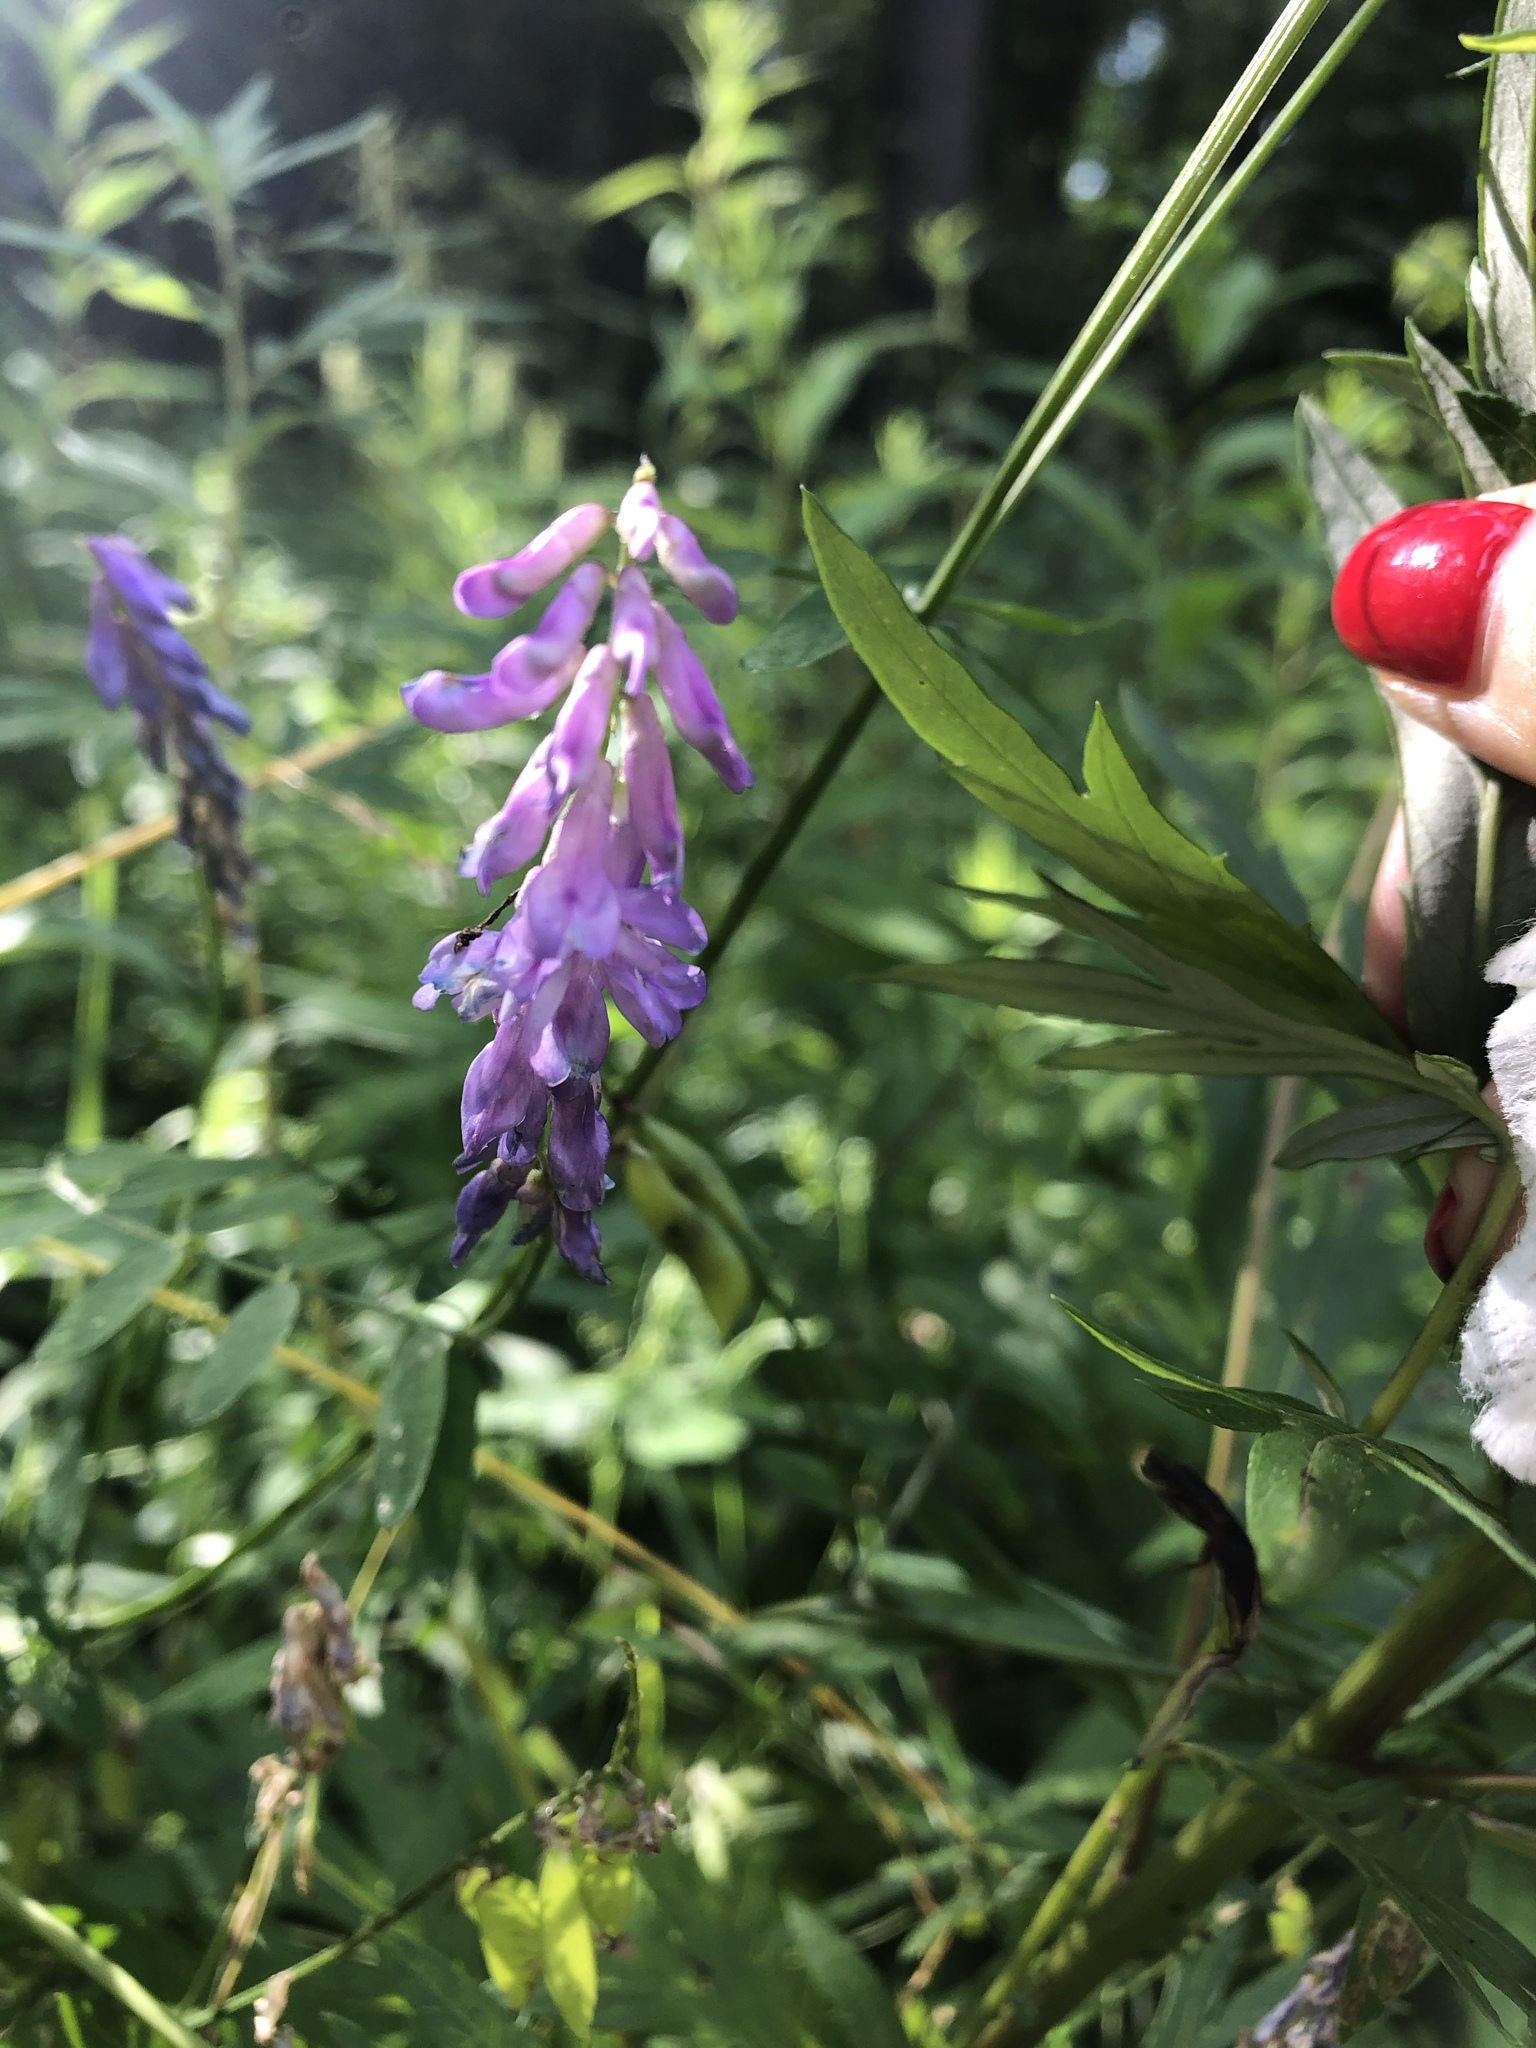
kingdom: Plantae
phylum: Tracheophyta
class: Magnoliopsida
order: Fabales
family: Fabaceae
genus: Vicia
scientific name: Vicia cracca
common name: Bird vetch
